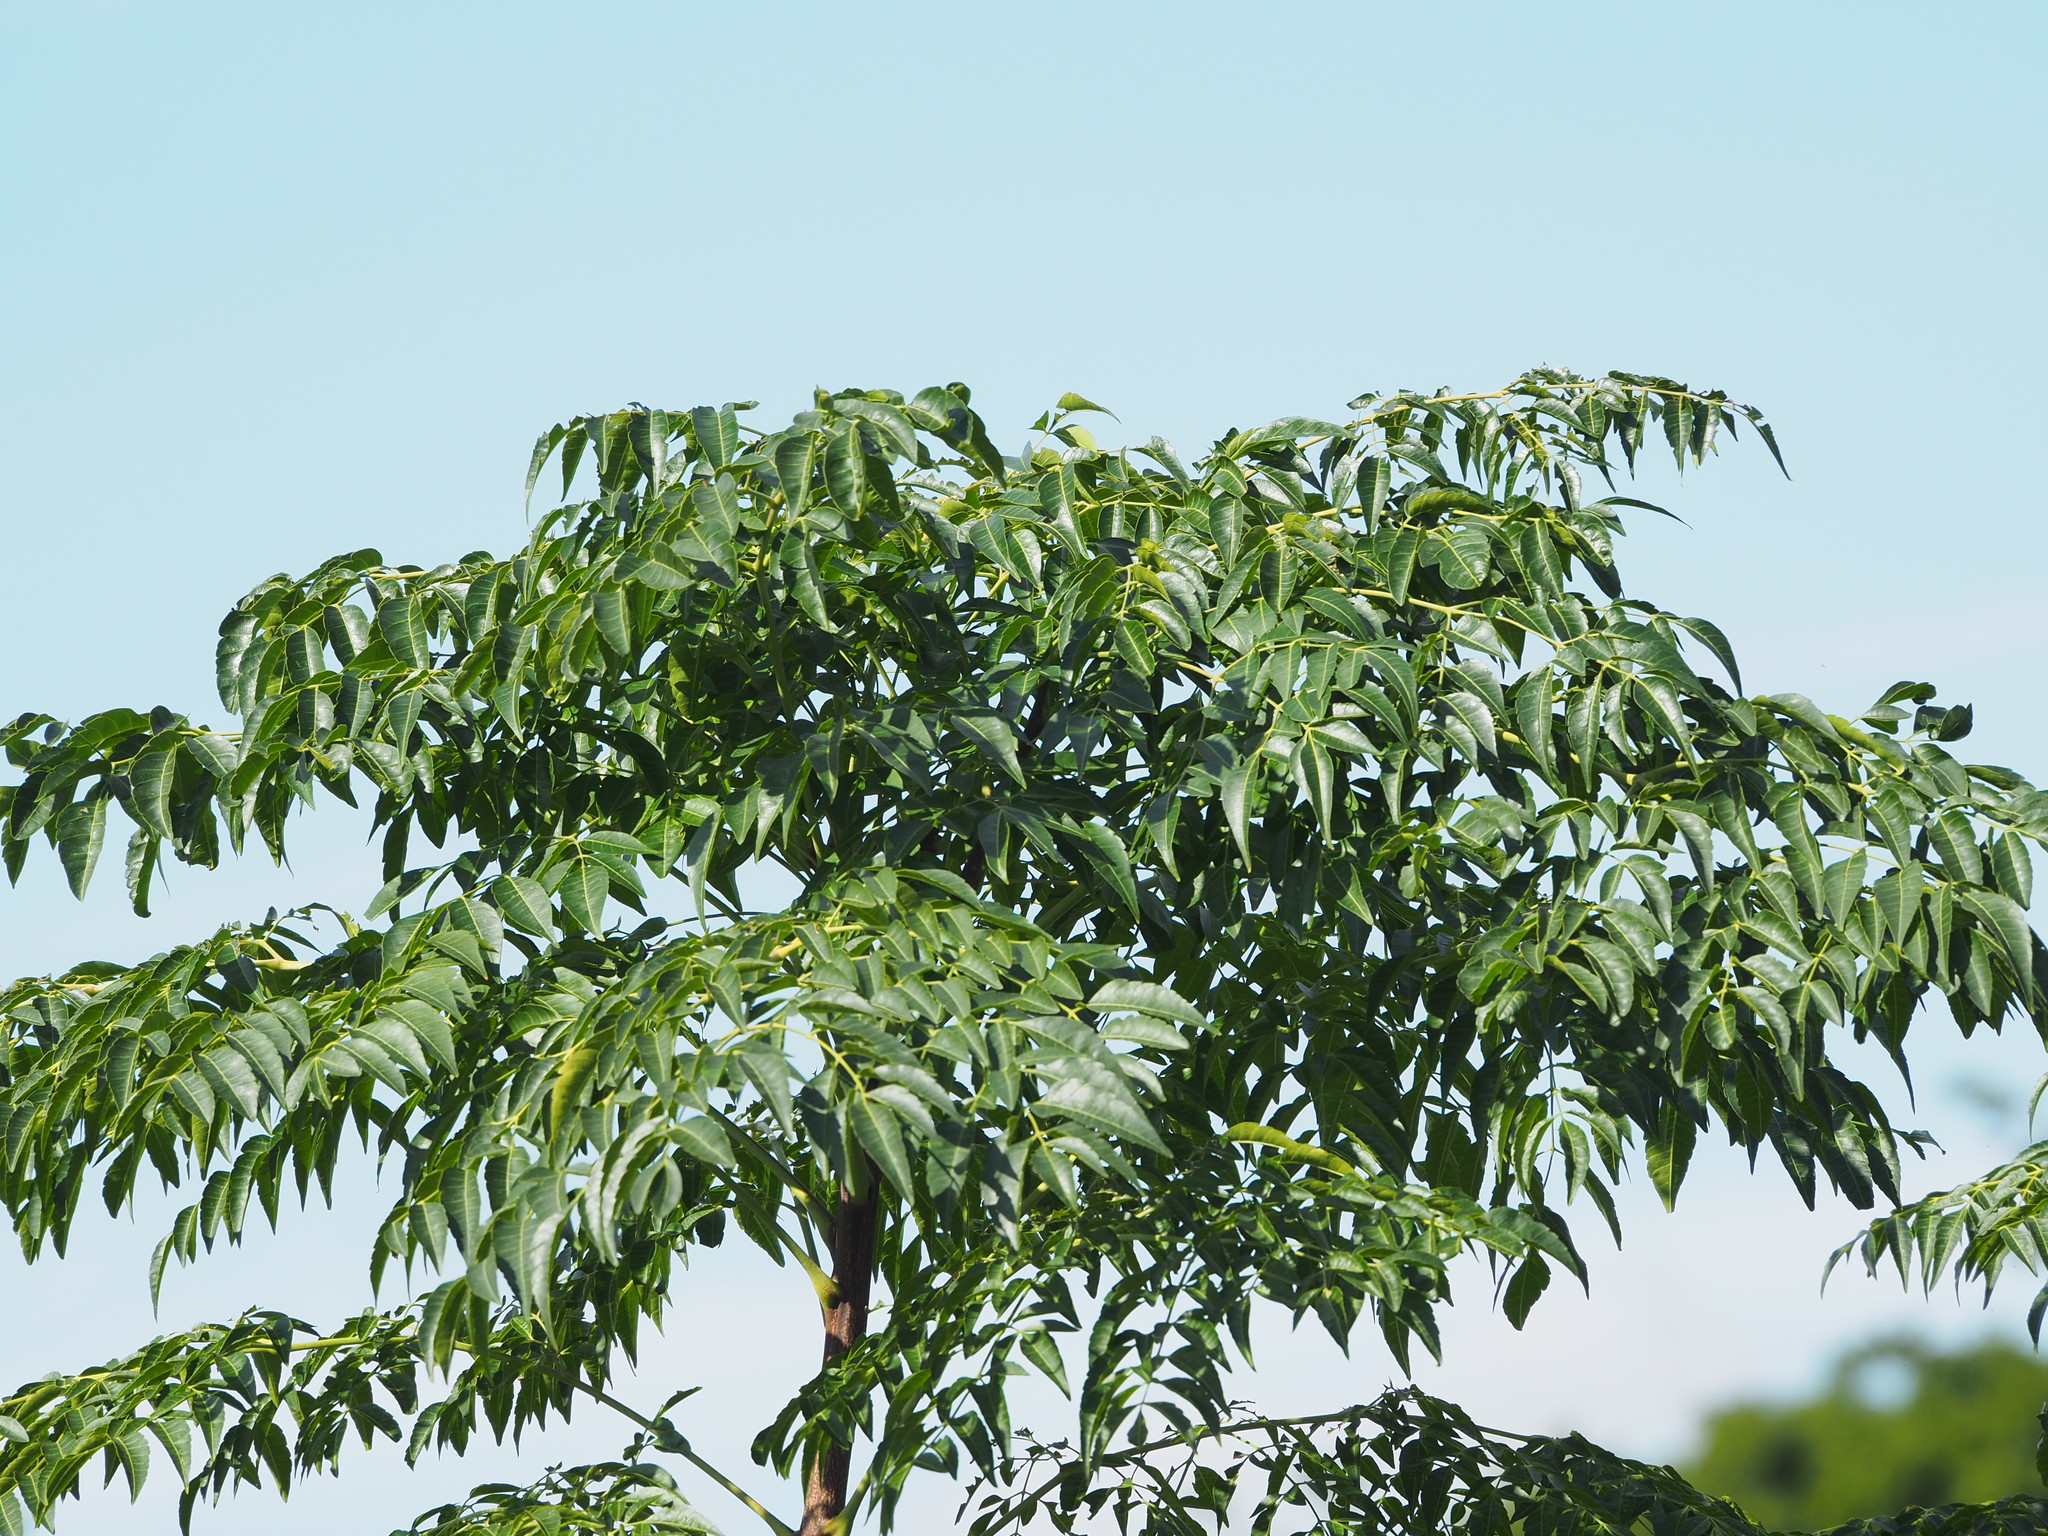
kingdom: Plantae
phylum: Tracheophyta
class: Magnoliopsida
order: Sapindales
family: Meliaceae
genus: Melia
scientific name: Melia azedarach
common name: Chinaberrytree
